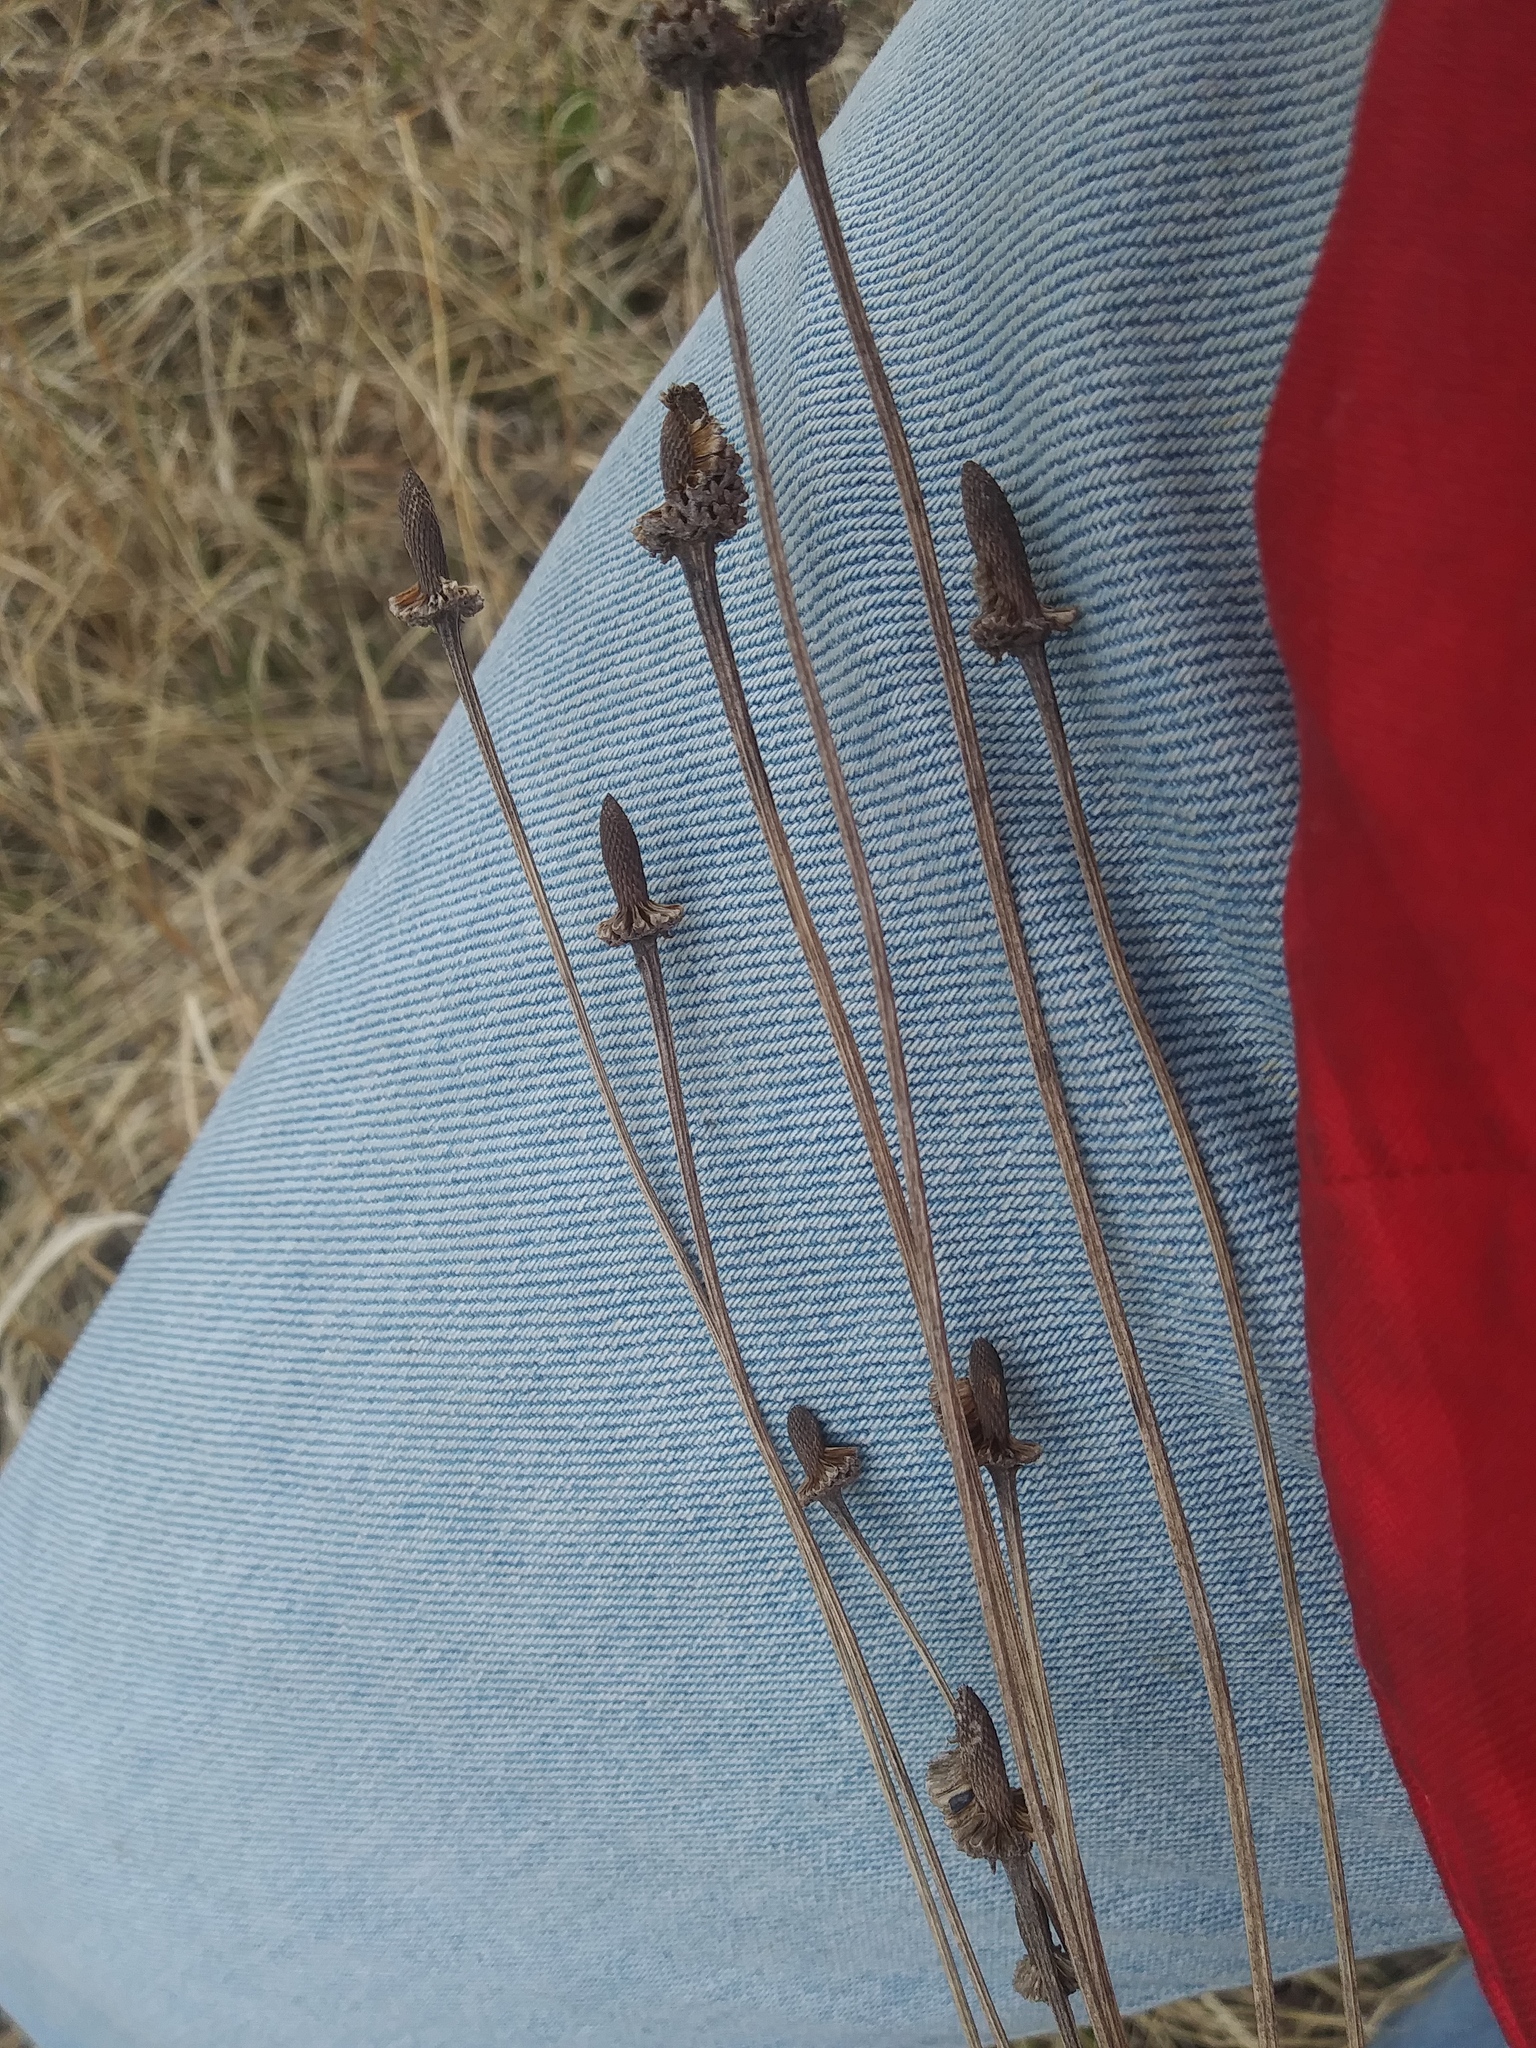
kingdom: Plantae
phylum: Tracheophyta
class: Magnoliopsida
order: Asterales
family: Asteraceae
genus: Ratibida
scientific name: Ratibida pinnata
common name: Drooping prairie-coneflower
